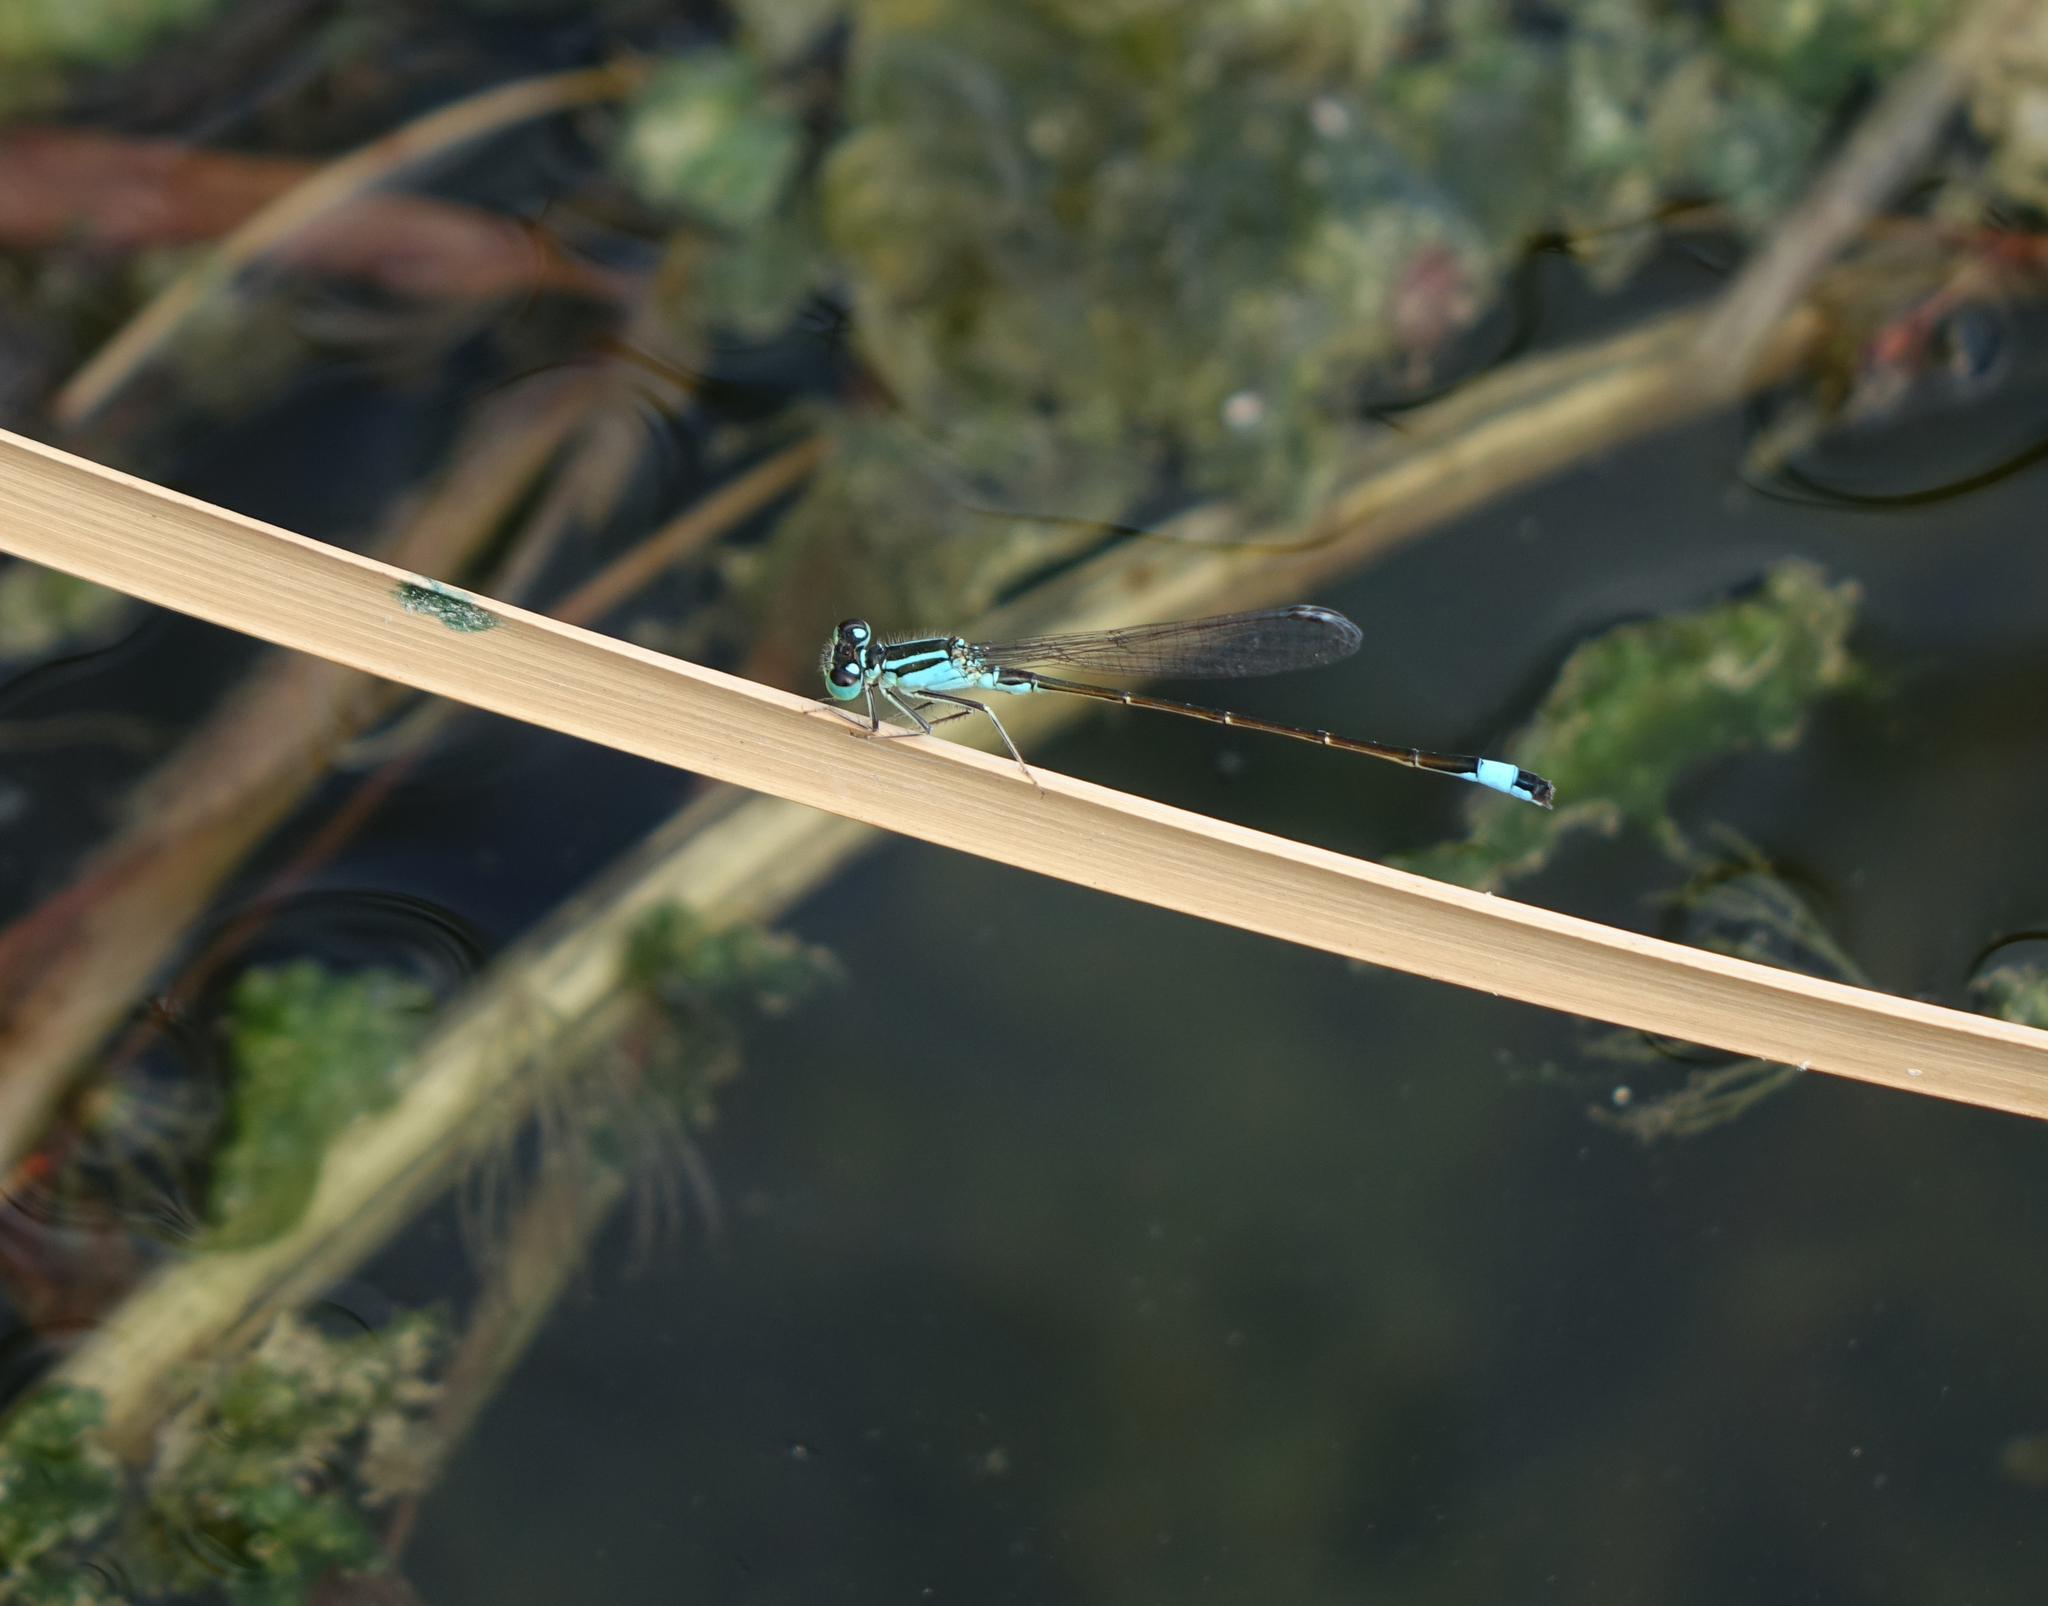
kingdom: Animalia
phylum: Arthropoda
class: Insecta
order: Odonata
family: Coenagrionidae
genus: Ischnura
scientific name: Ischnura elegans
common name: Blue-tailed damselfly
